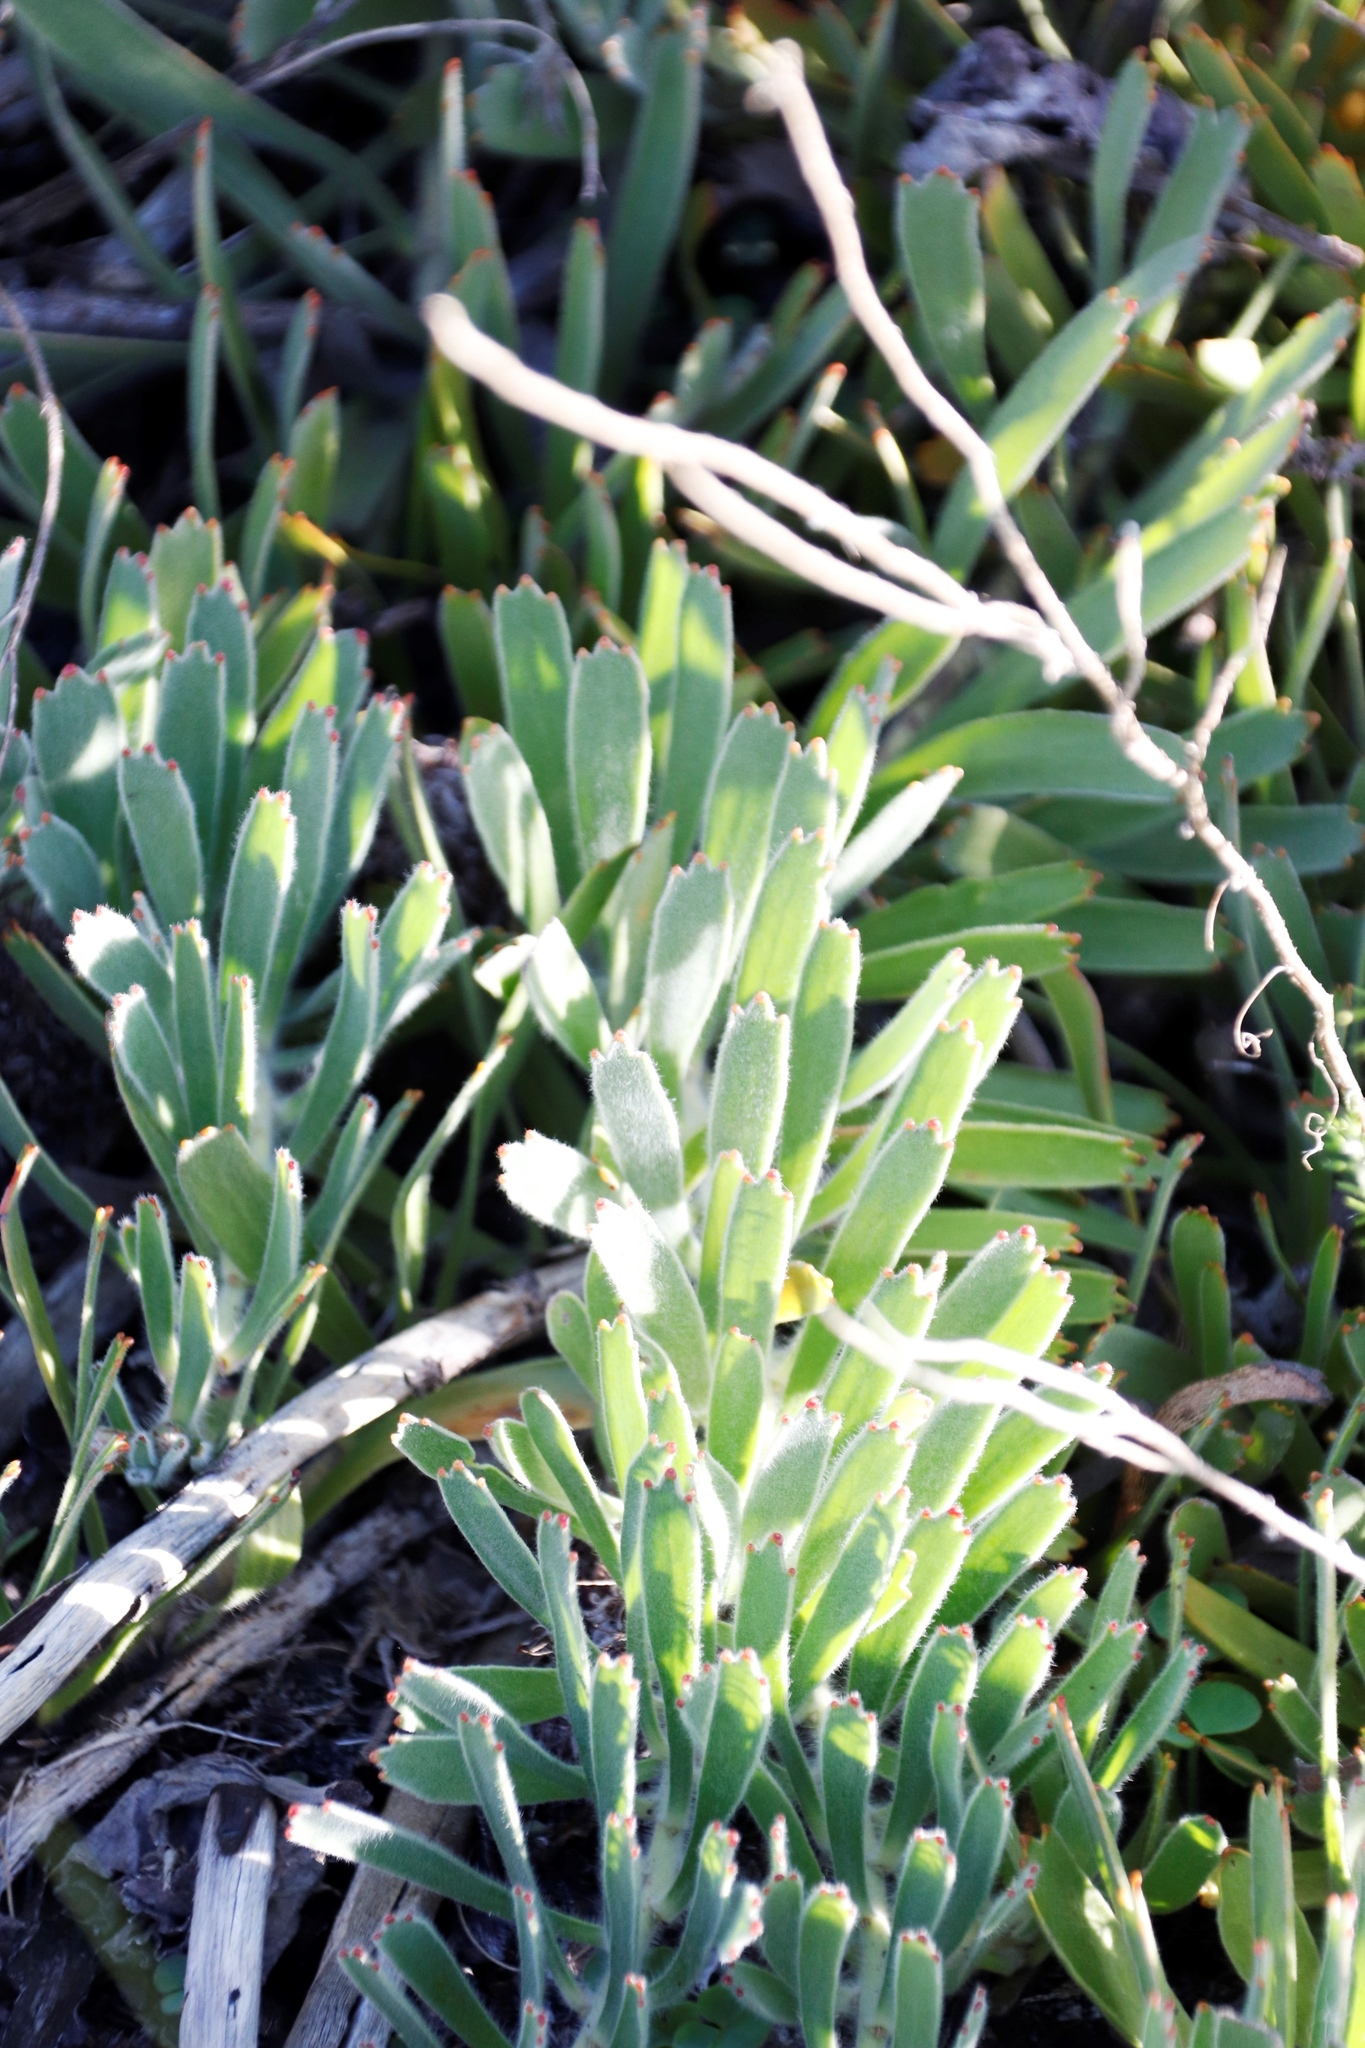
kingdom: Plantae
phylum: Tracheophyta
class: Magnoliopsida
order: Proteales
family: Proteaceae
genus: Leucospermum
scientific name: Leucospermum hypophyllocarpodendron
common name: Snakestem pincushion
